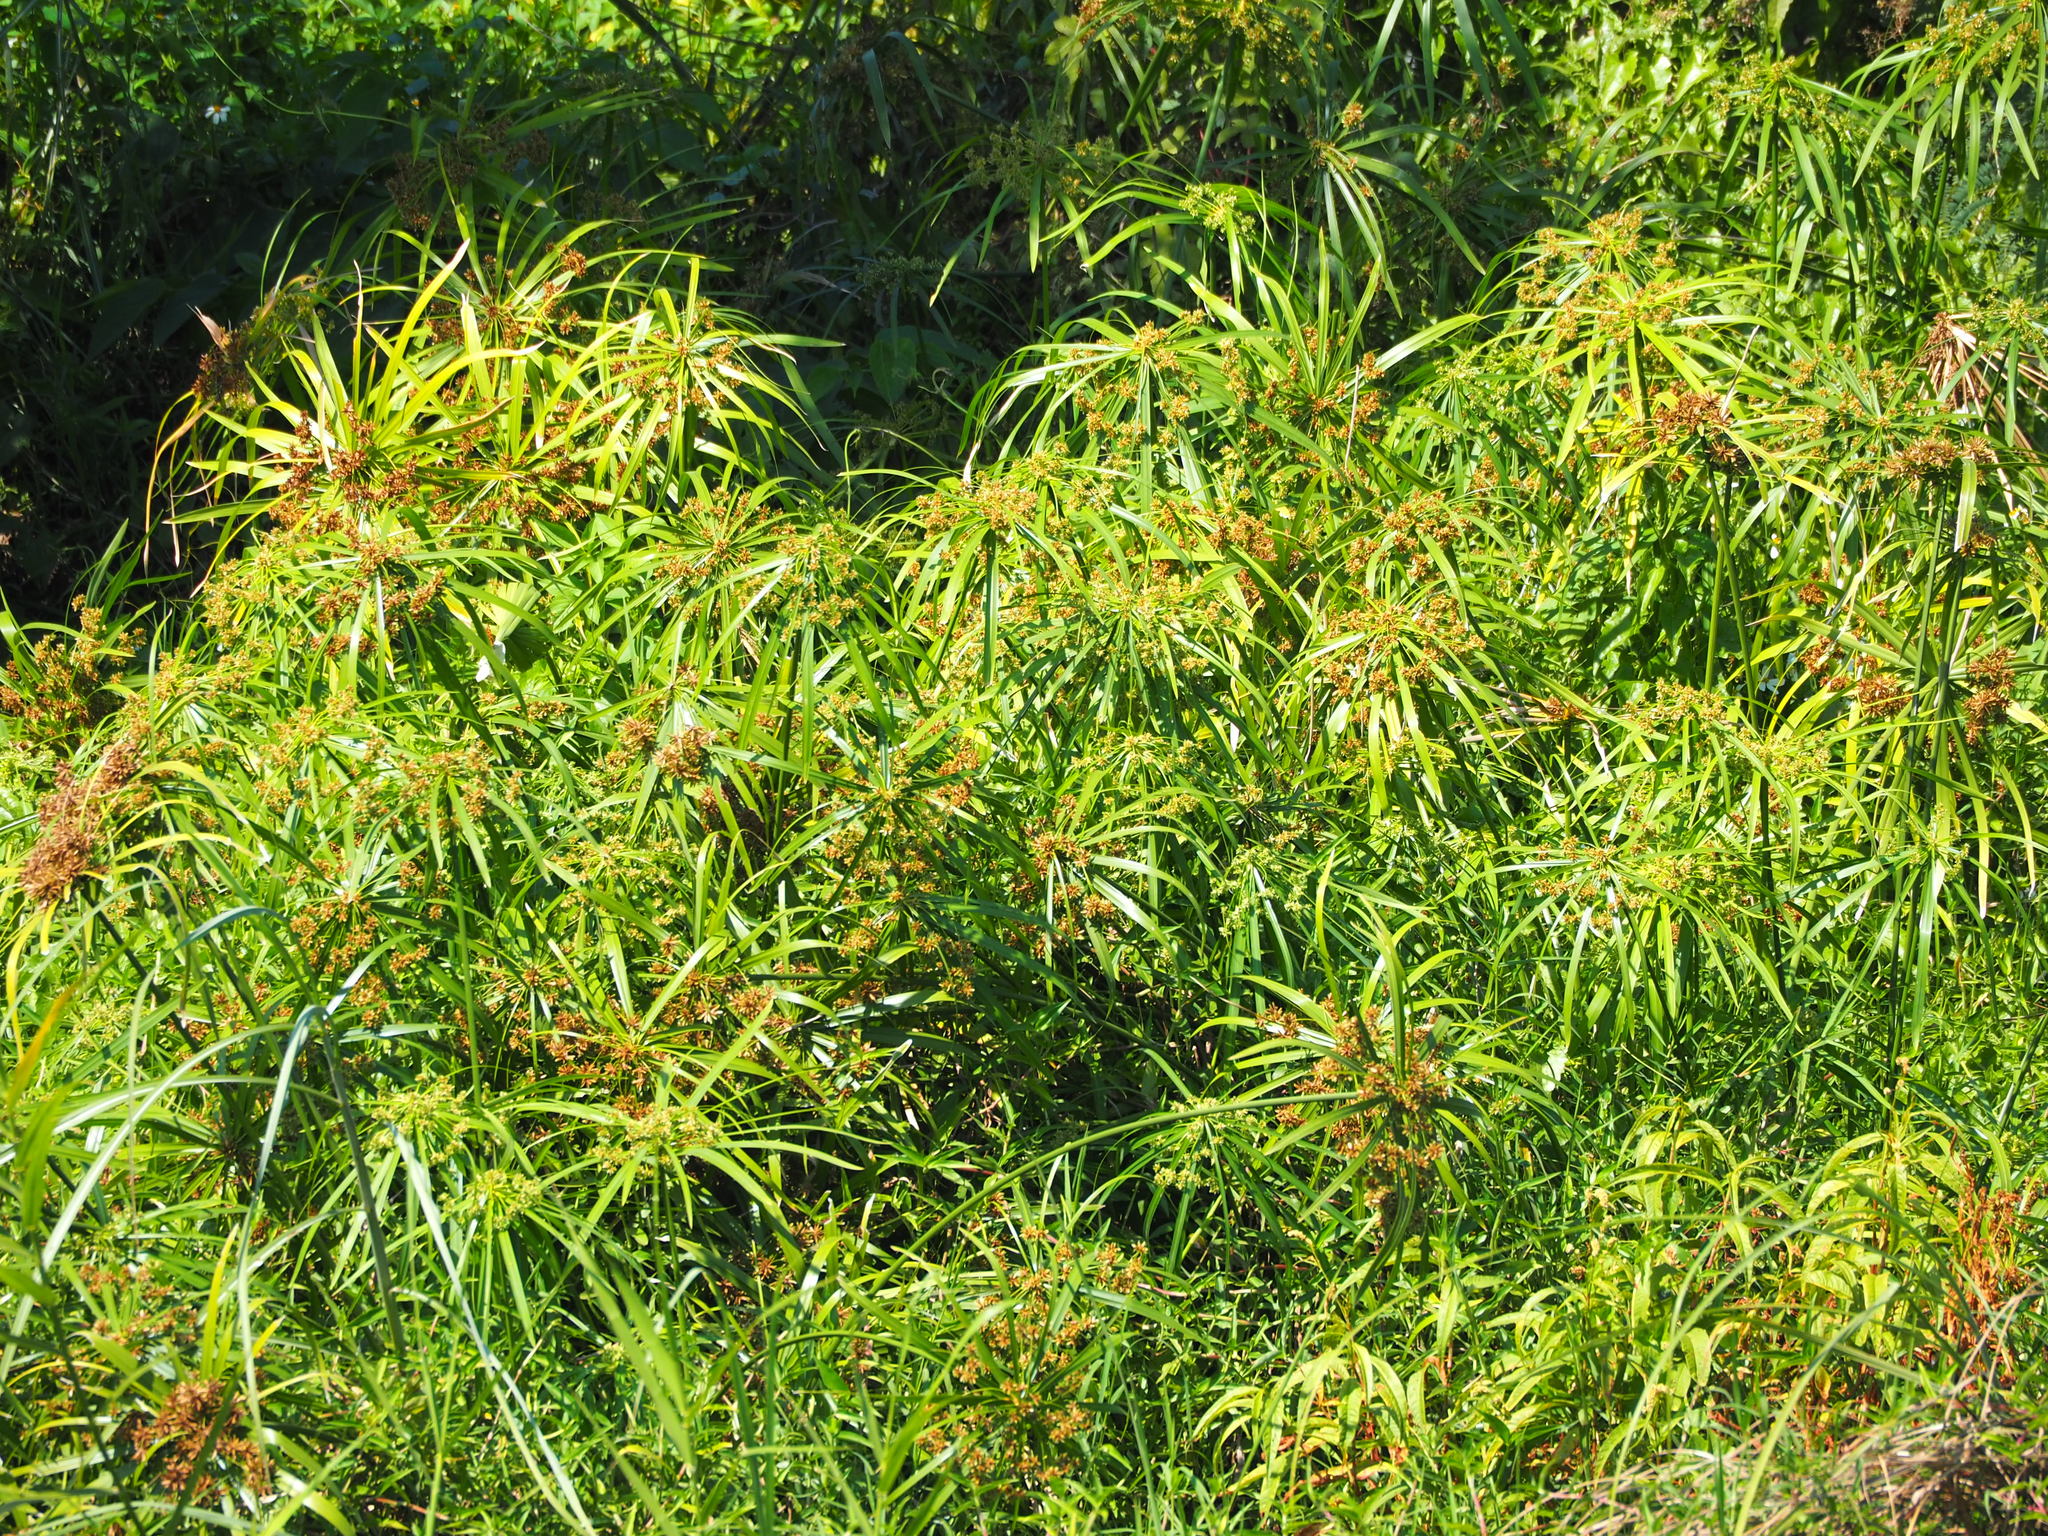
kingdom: Plantae
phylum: Tracheophyta
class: Liliopsida
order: Poales
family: Cyperaceae
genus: Cyperus
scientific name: Cyperus alternifolius
